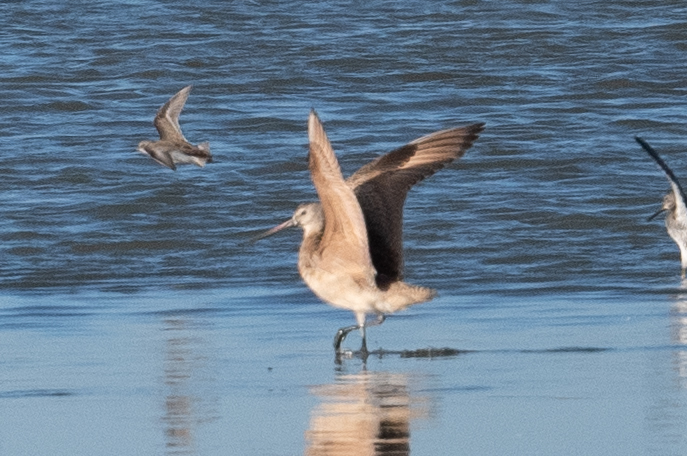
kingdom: Animalia
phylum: Chordata
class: Aves
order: Charadriiformes
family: Scolopacidae
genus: Limosa
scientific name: Limosa fedoa
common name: Marbled godwit
